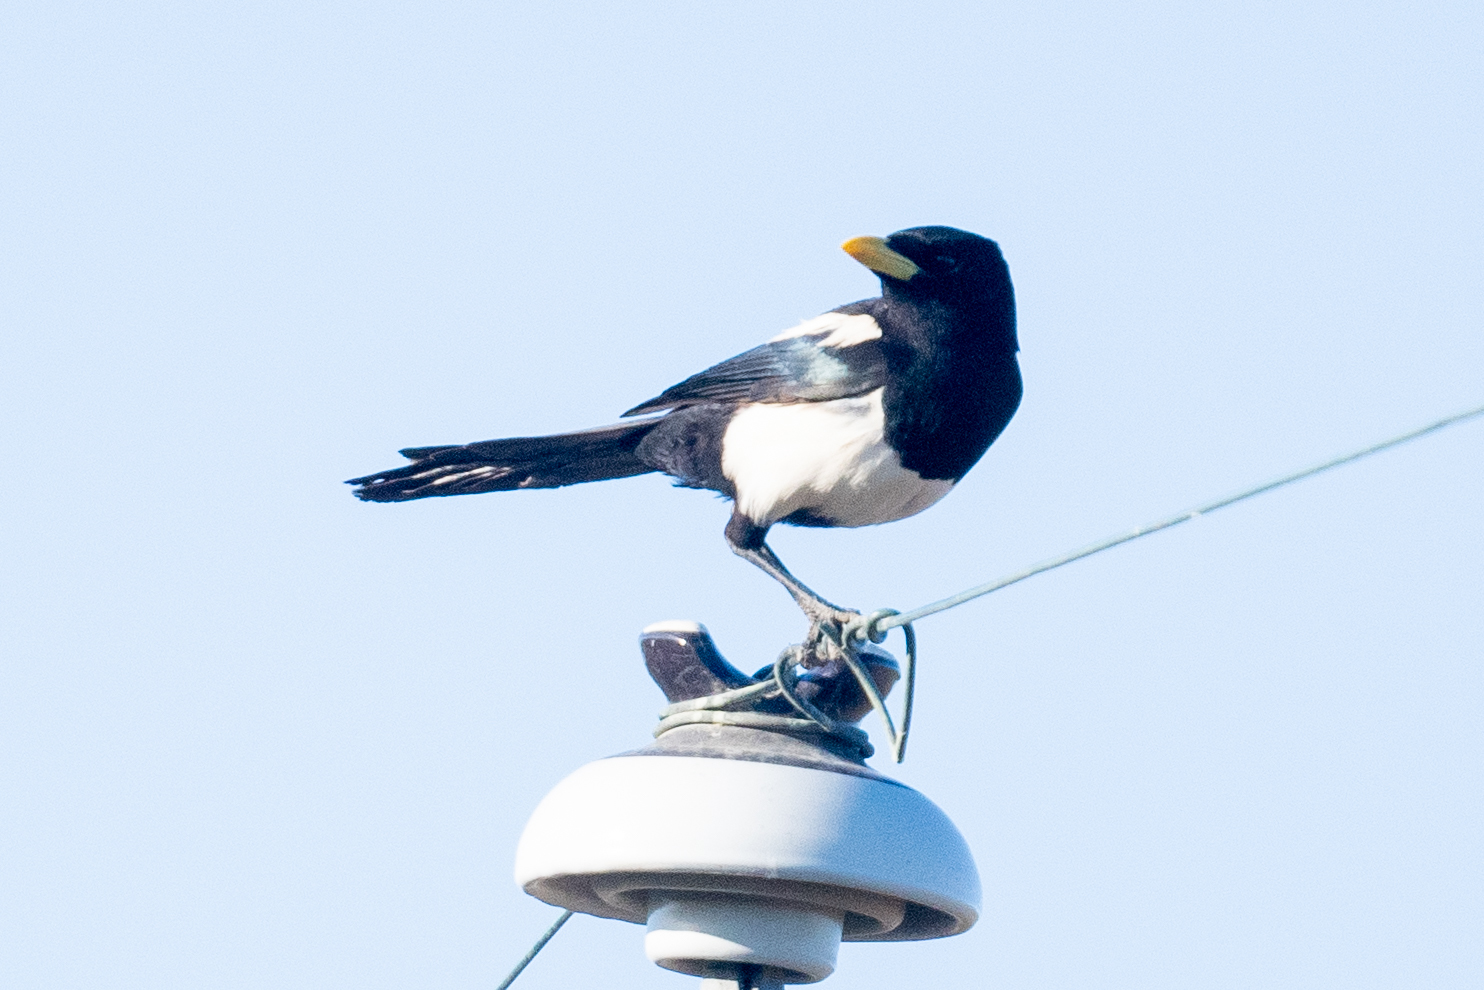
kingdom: Animalia
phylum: Chordata
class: Aves
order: Passeriformes
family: Corvidae
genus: Pica
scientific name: Pica nuttalli
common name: Yellow-billed magpie
